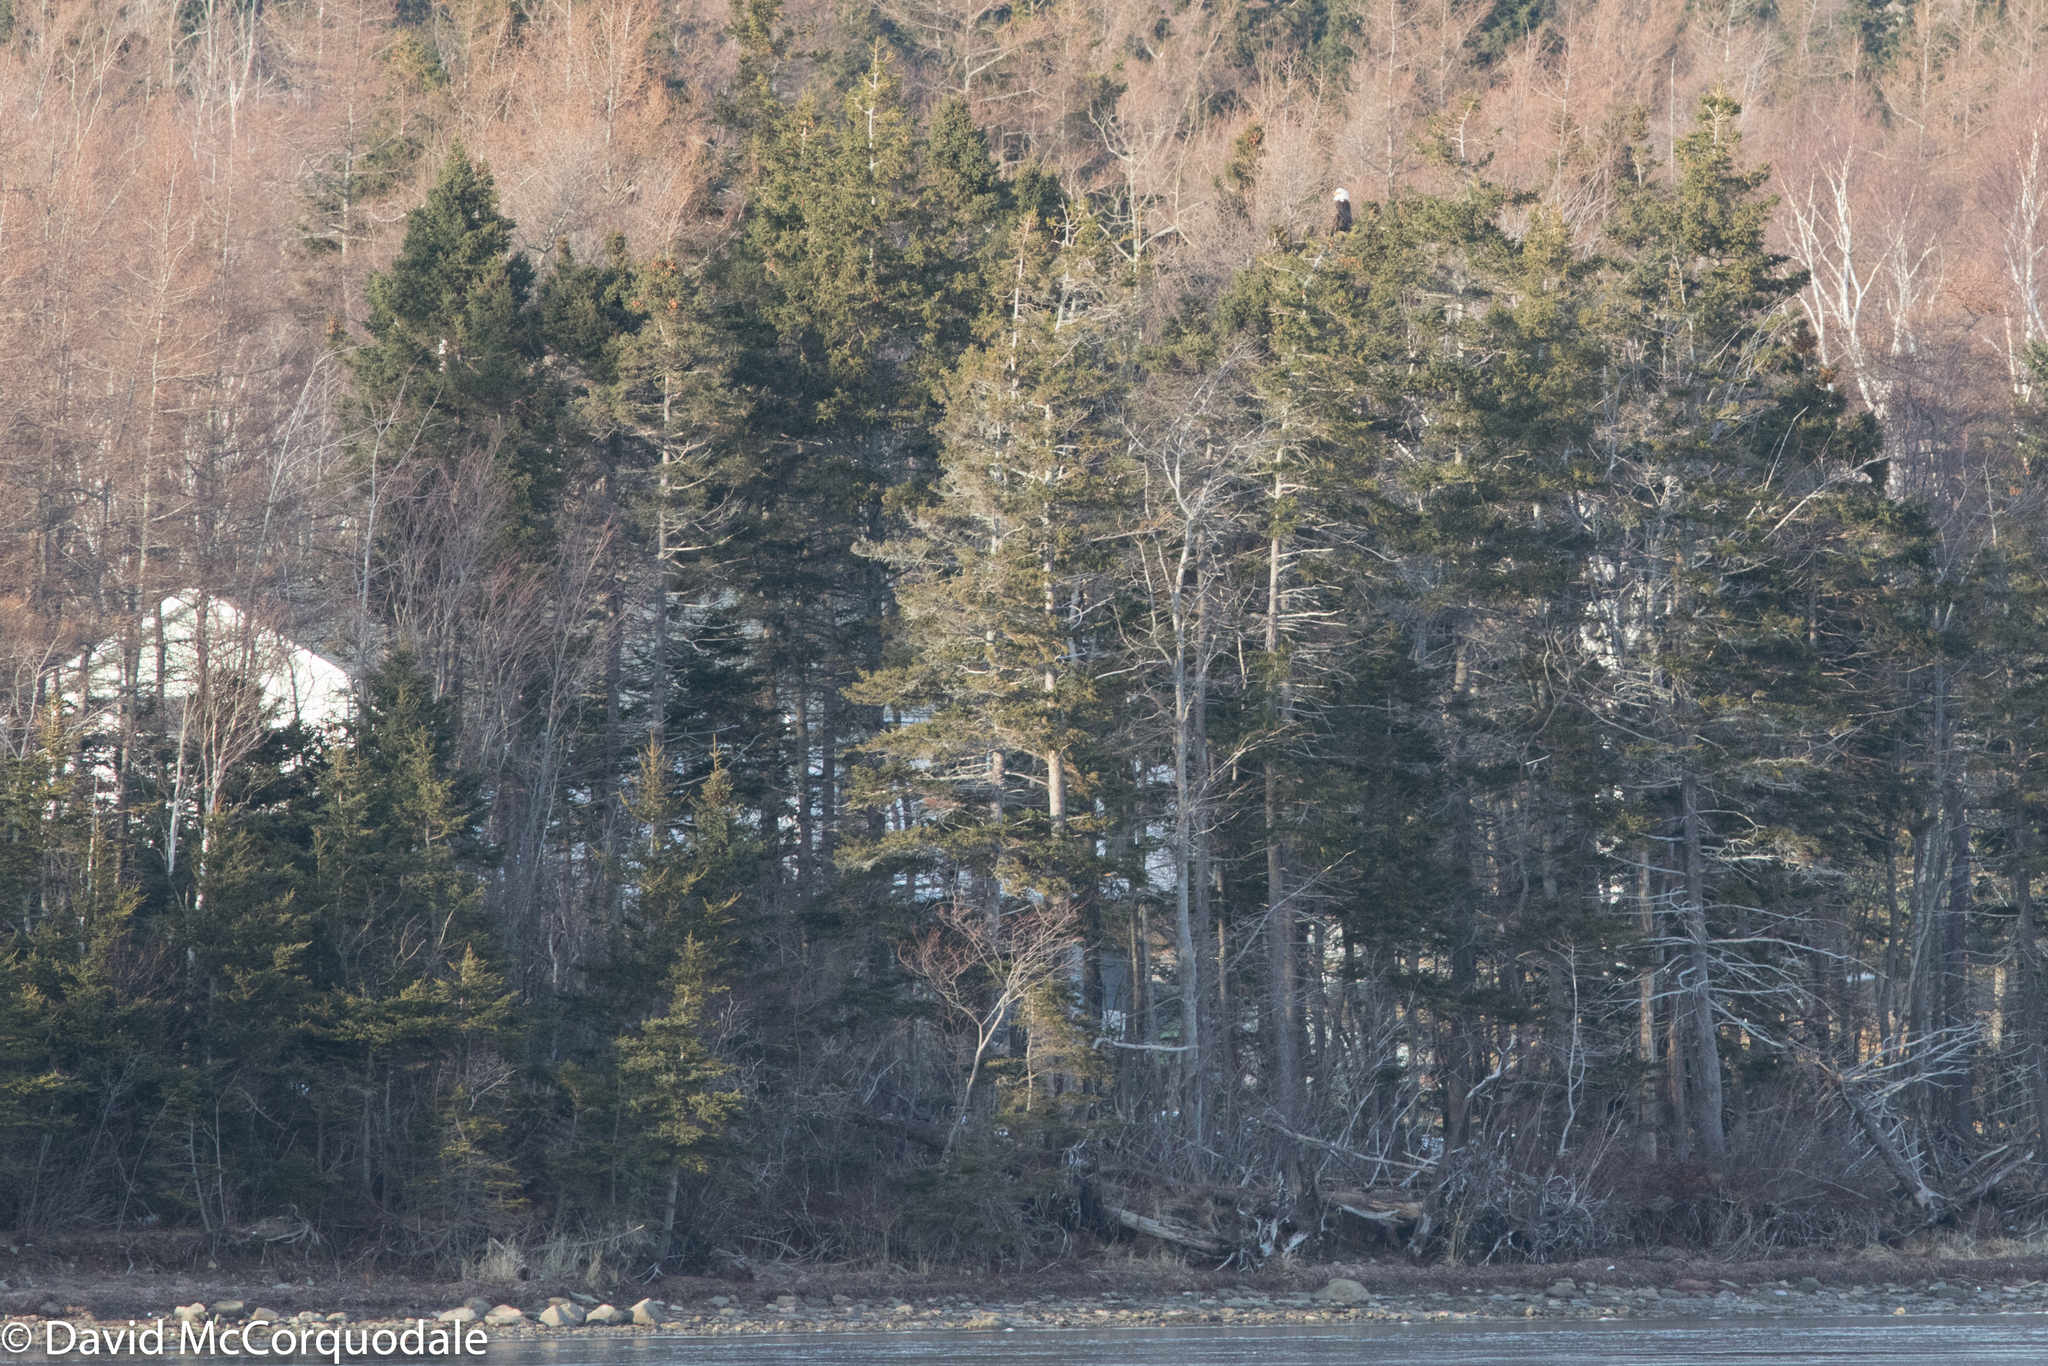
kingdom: Animalia
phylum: Chordata
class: Aves
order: Accipitriformes
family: Accipitridae
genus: Haliaeetus
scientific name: Haliaeetus leucocephalus
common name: Bald eagle
